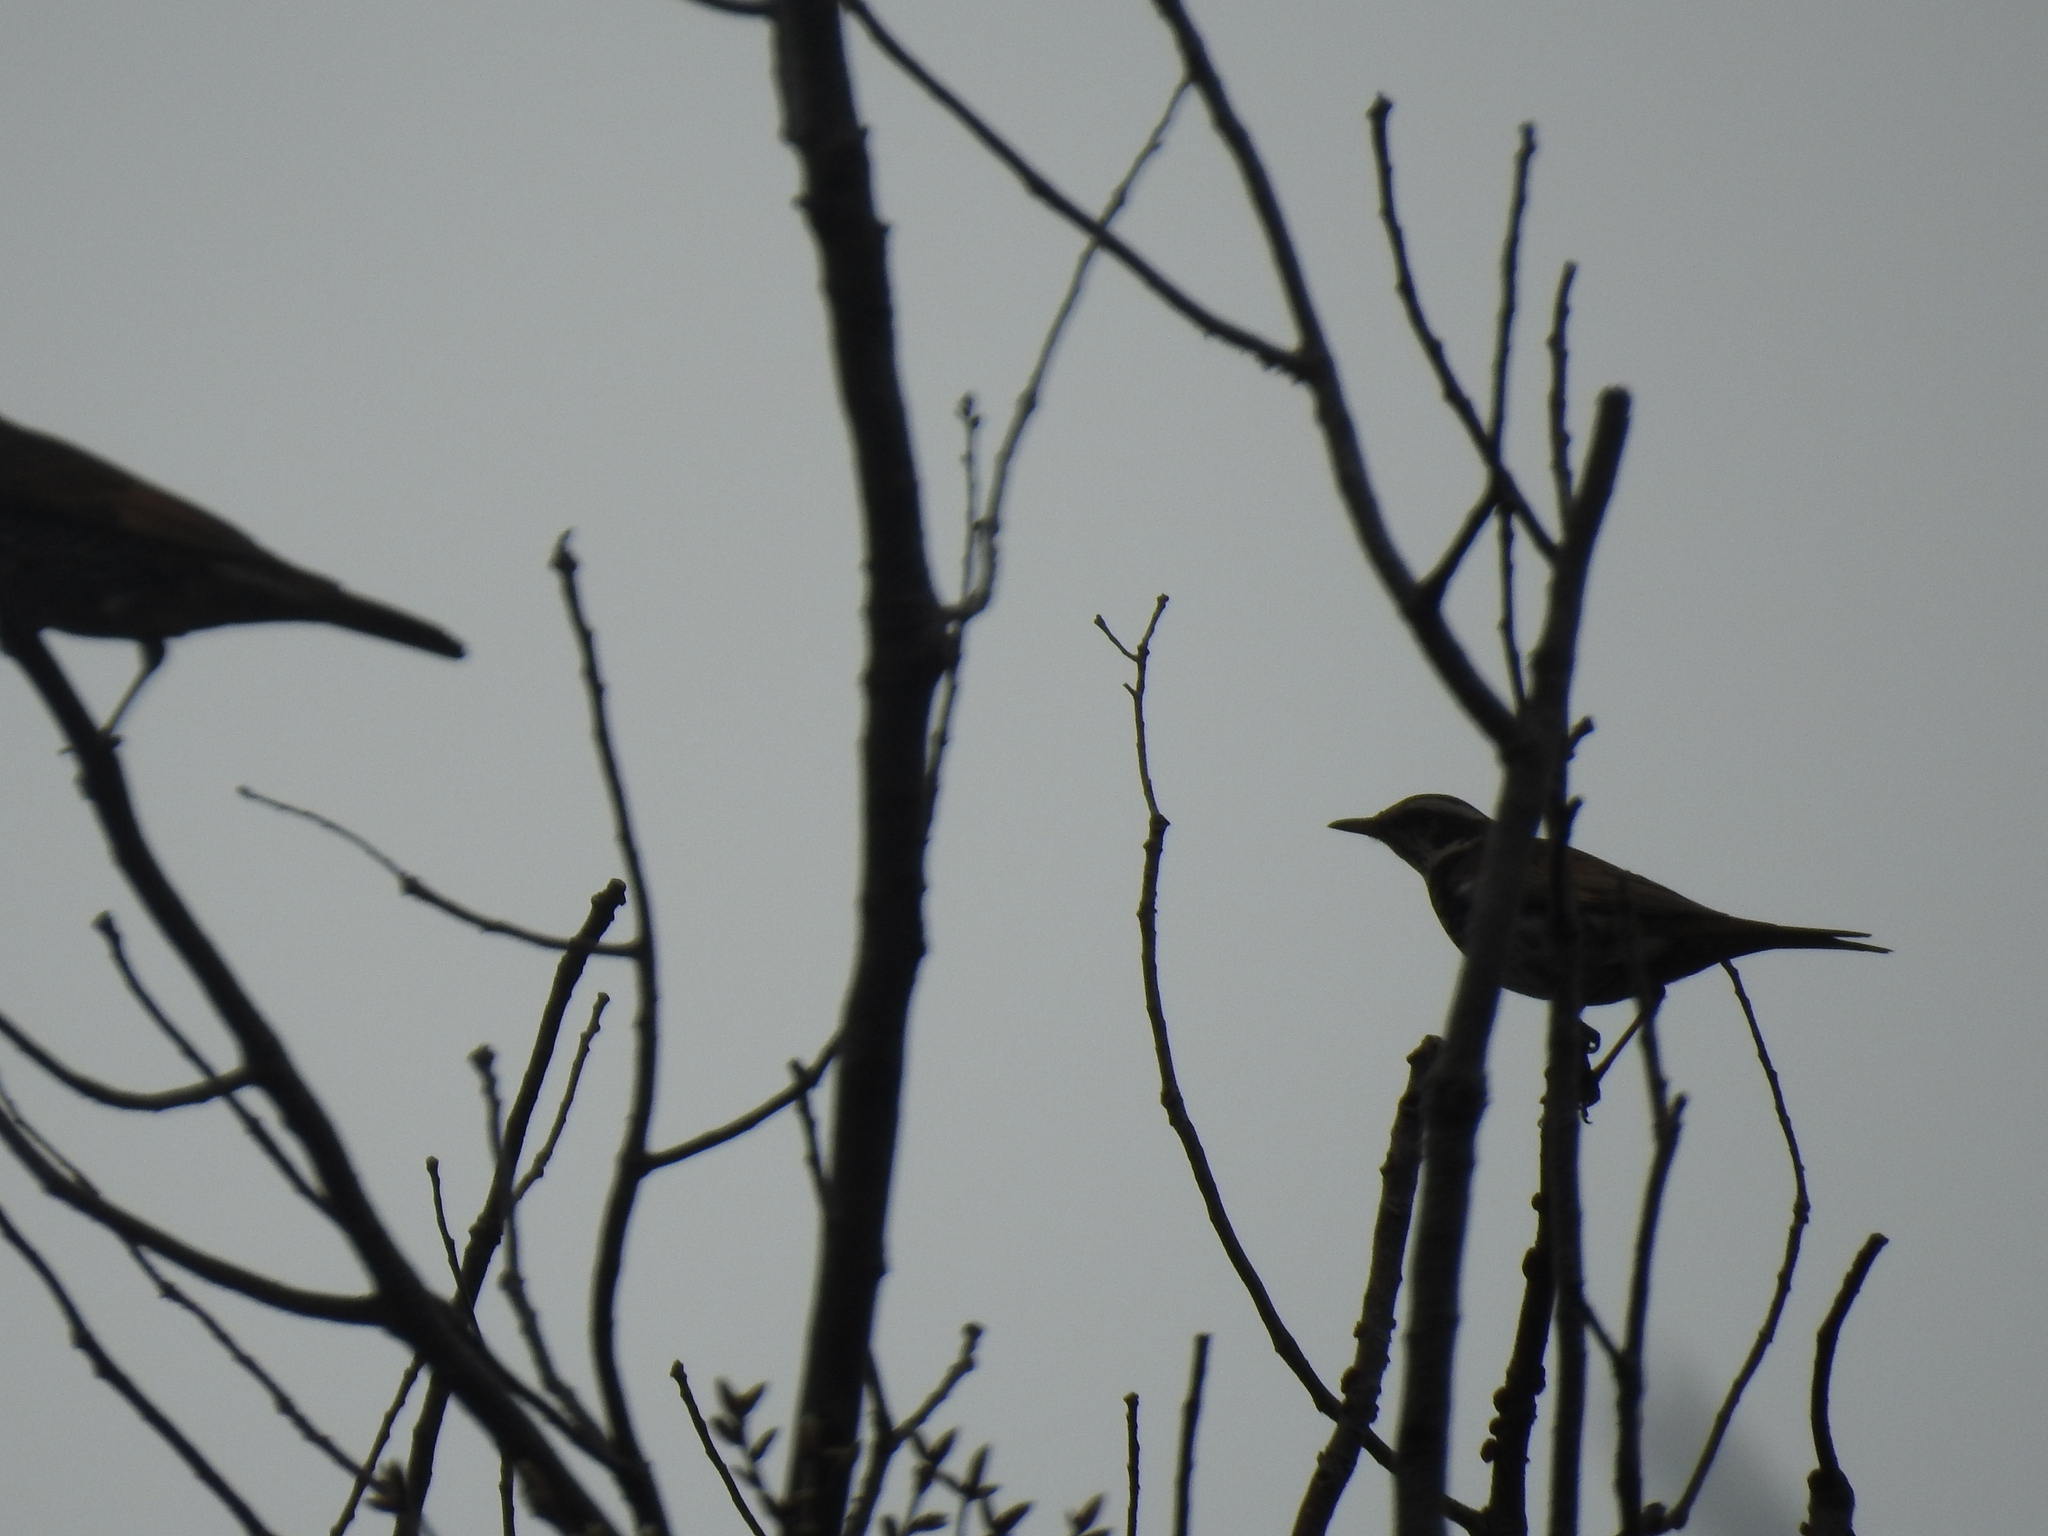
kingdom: Animalia
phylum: Chordata
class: Aves
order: Passeriformes
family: Turdidae
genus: Turdus
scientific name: Turdus eunomus
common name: Dusky thrush
